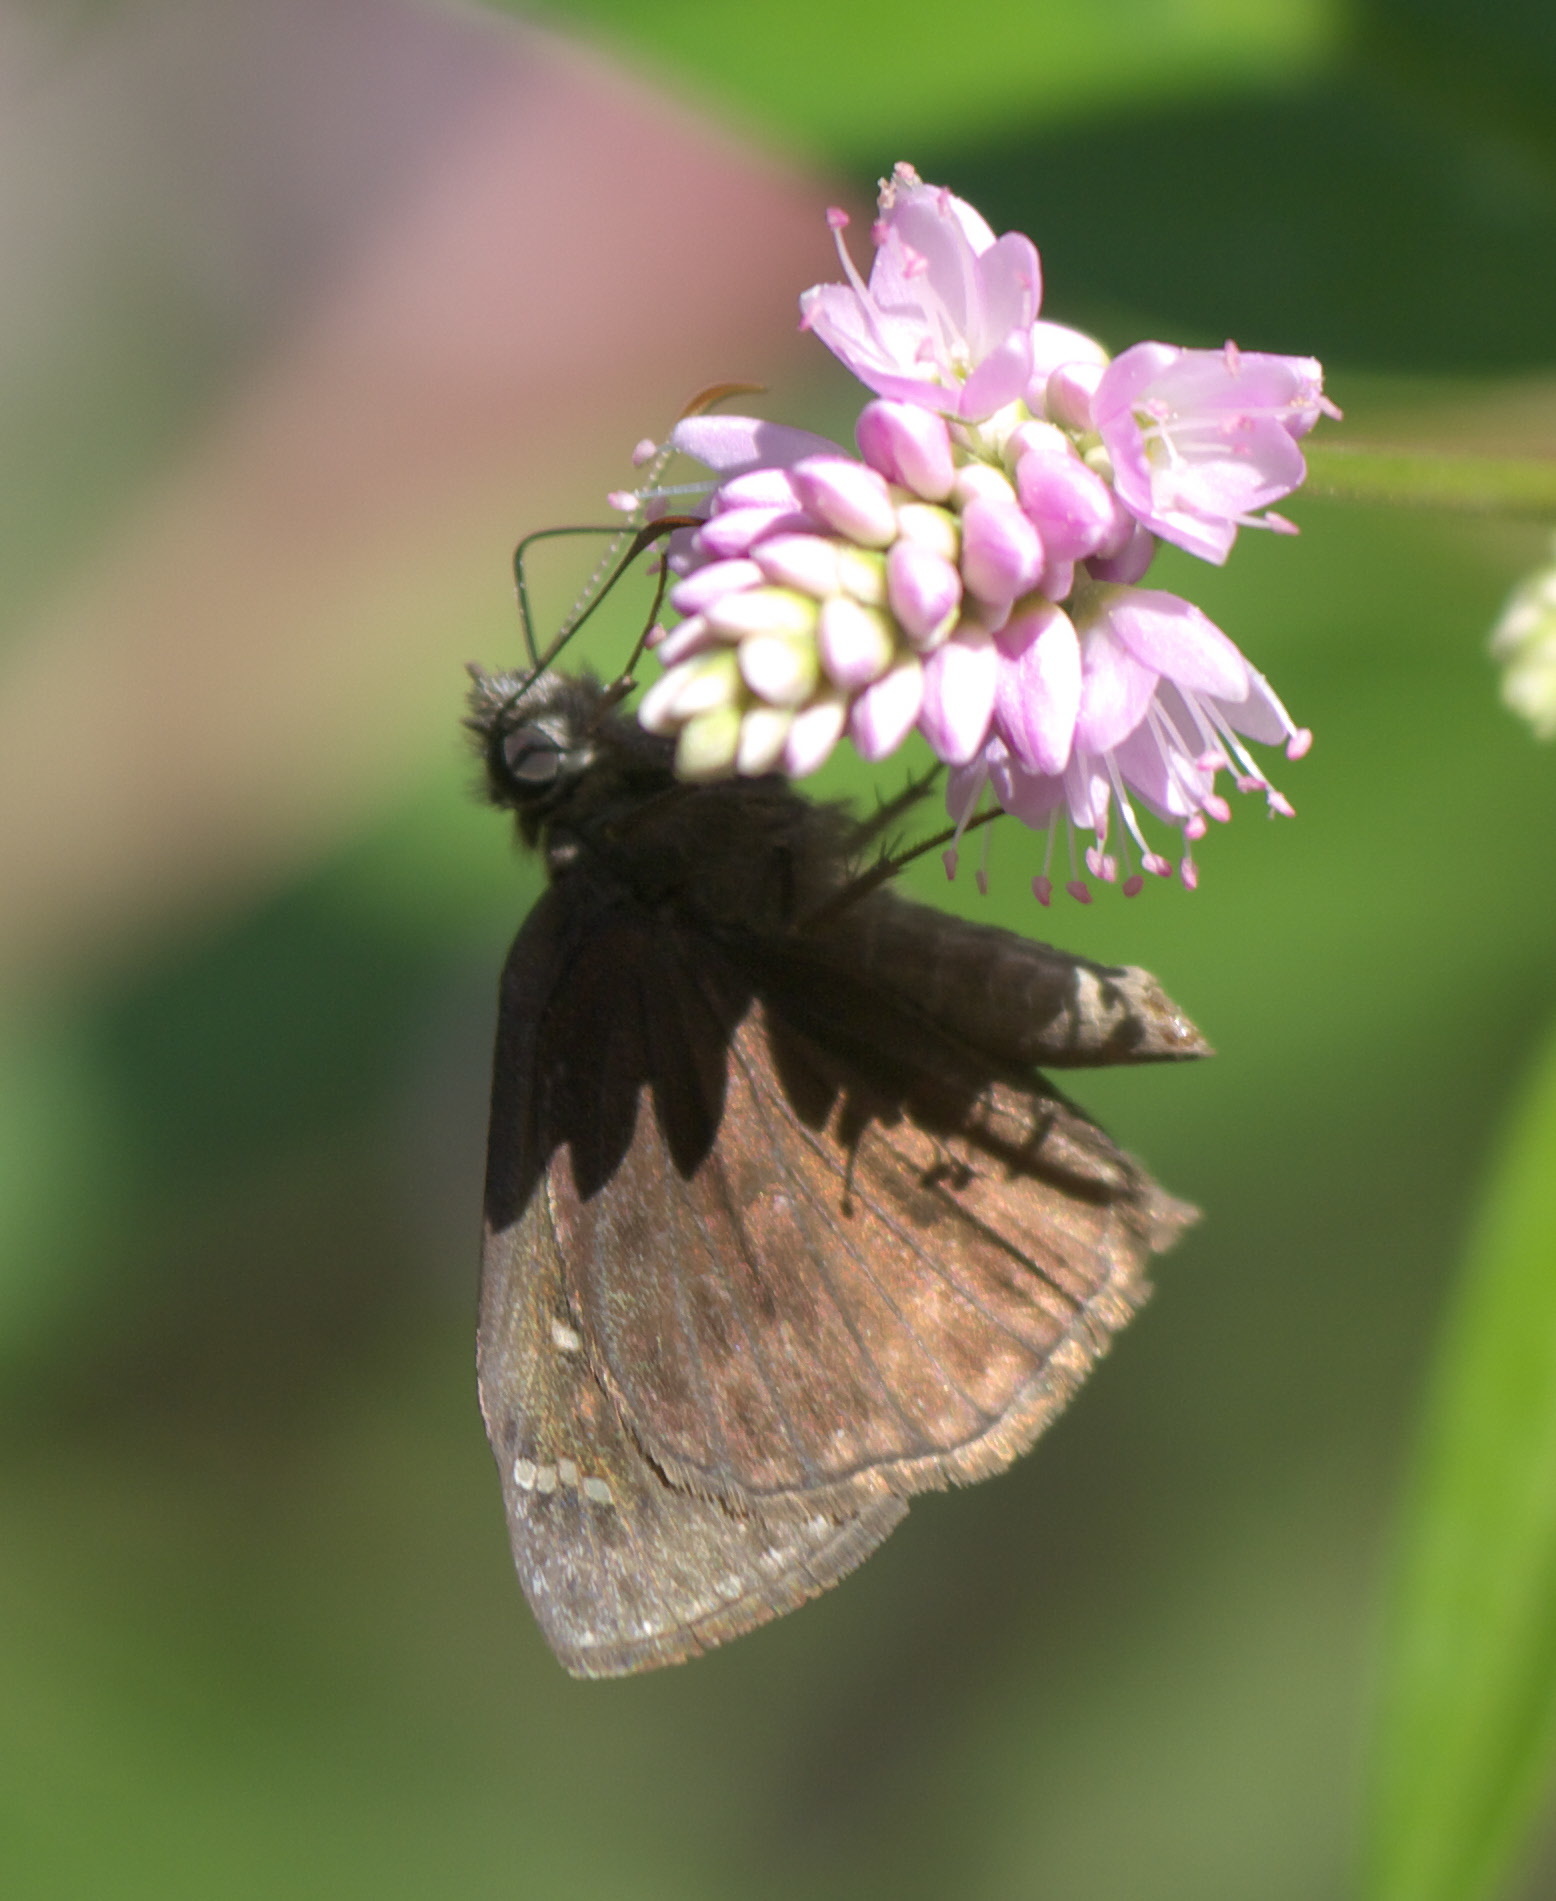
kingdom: Animalia
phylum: Arthropoda
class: Insecta
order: Lepidoptera
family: Hesperiidae
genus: Erynnis
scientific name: Erynnis horatius
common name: Horace's duskywing
